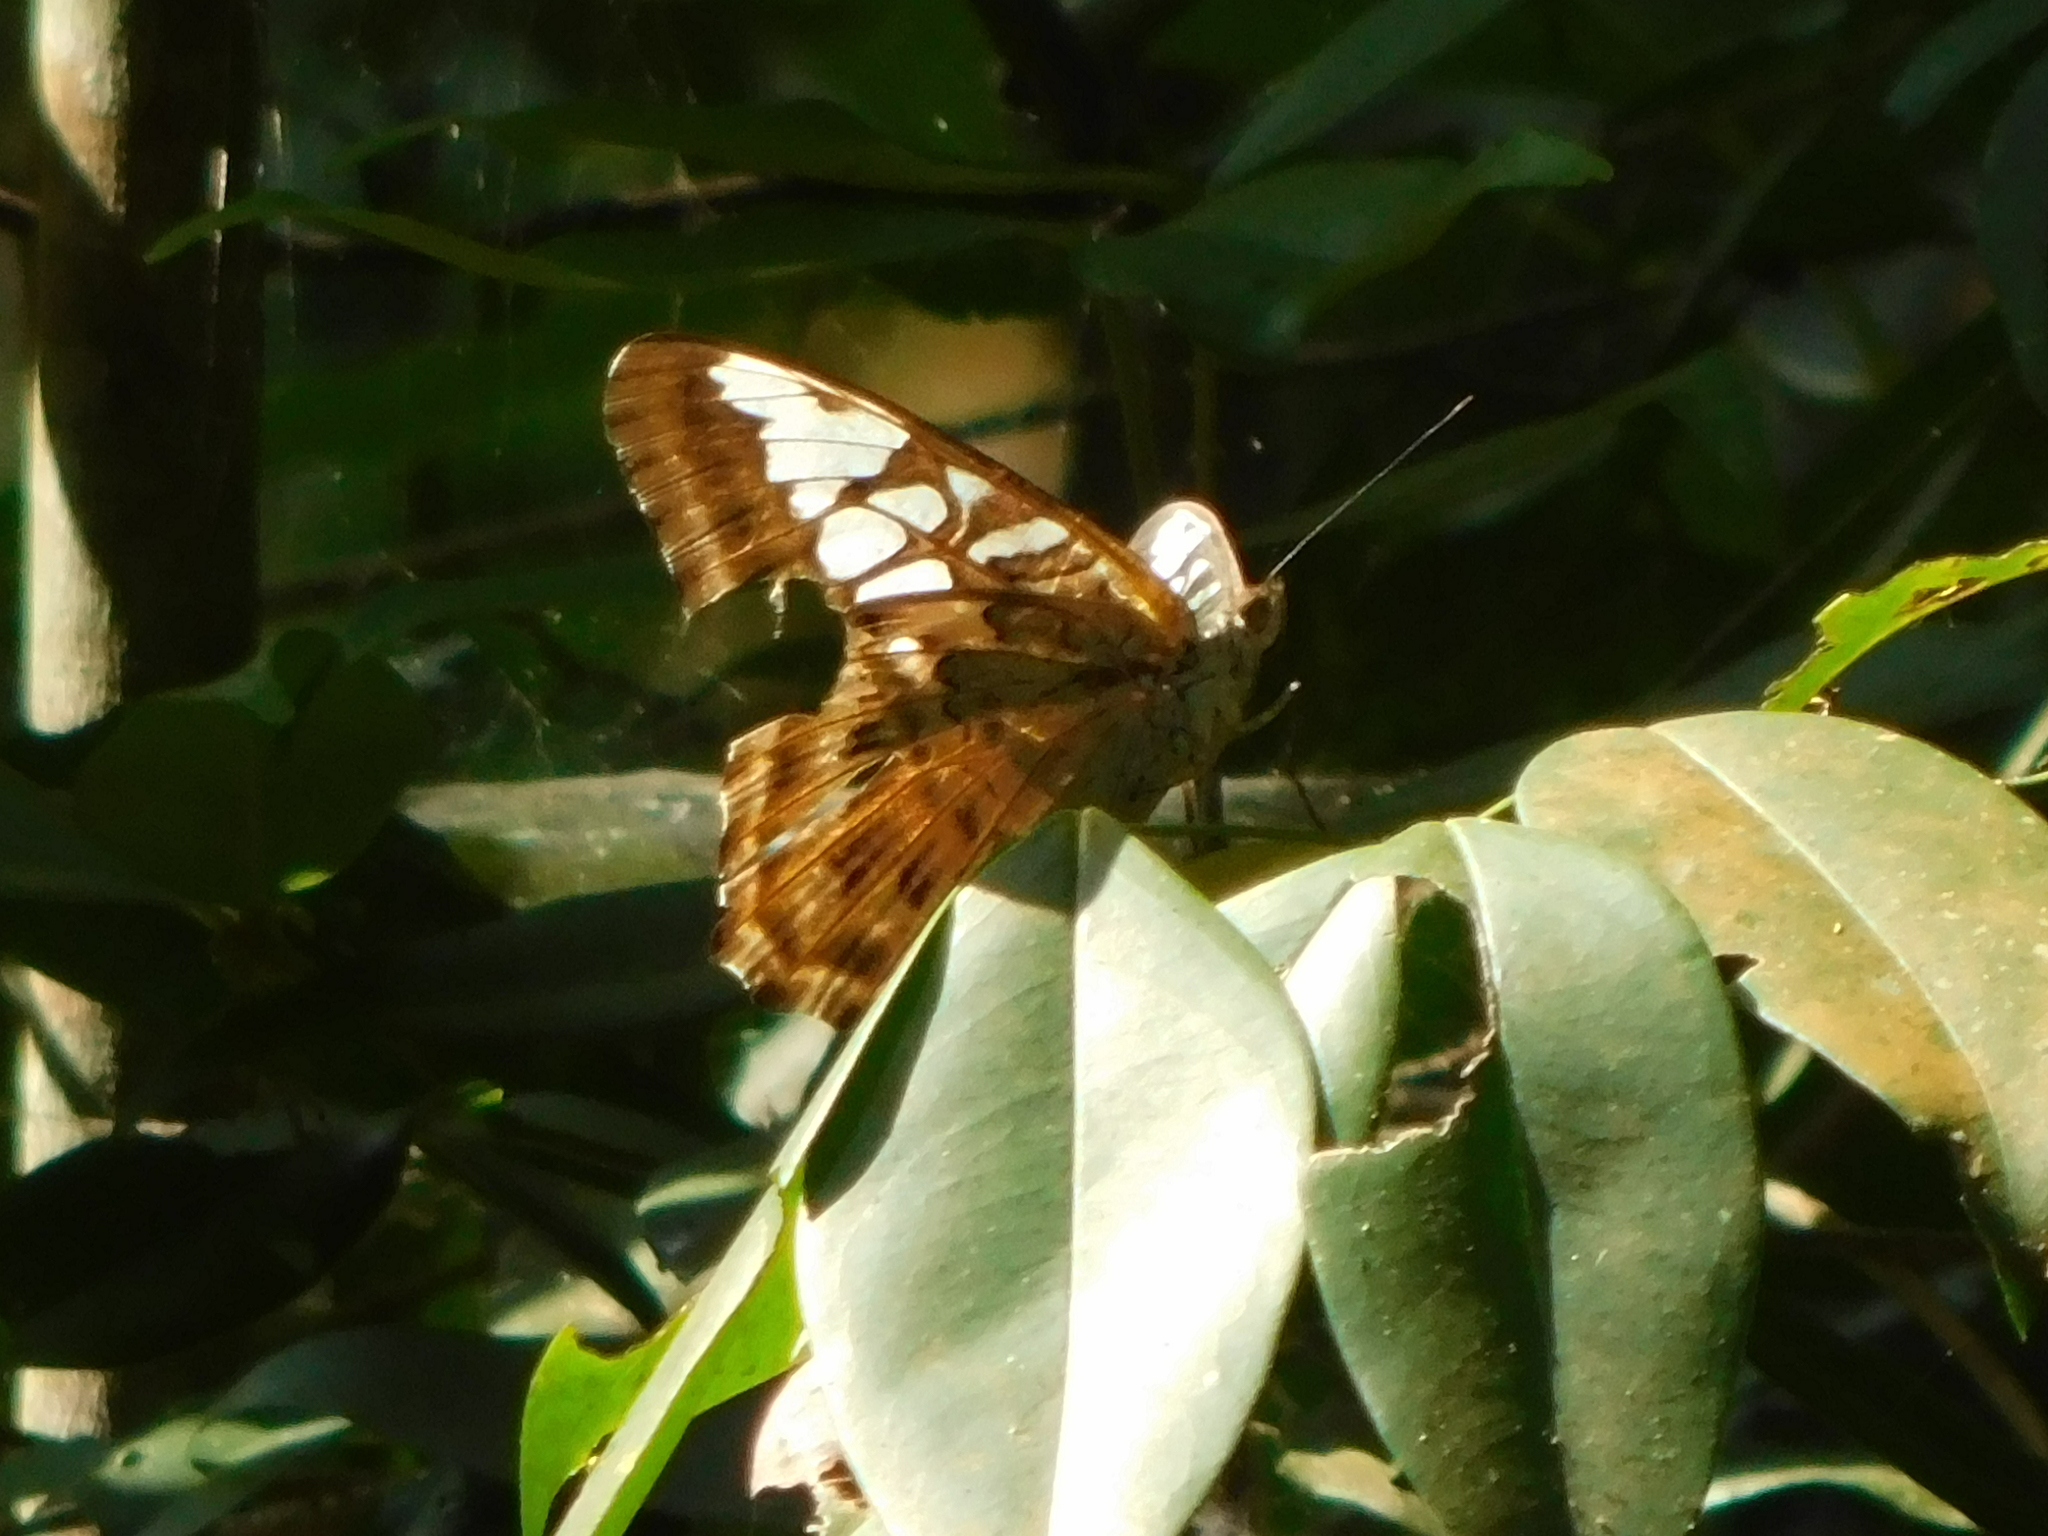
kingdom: Animalia
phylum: Arthropoda
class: Insecta
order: Lepidoptera
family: Nymphalidae
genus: Kallima
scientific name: Kallima sylvia
